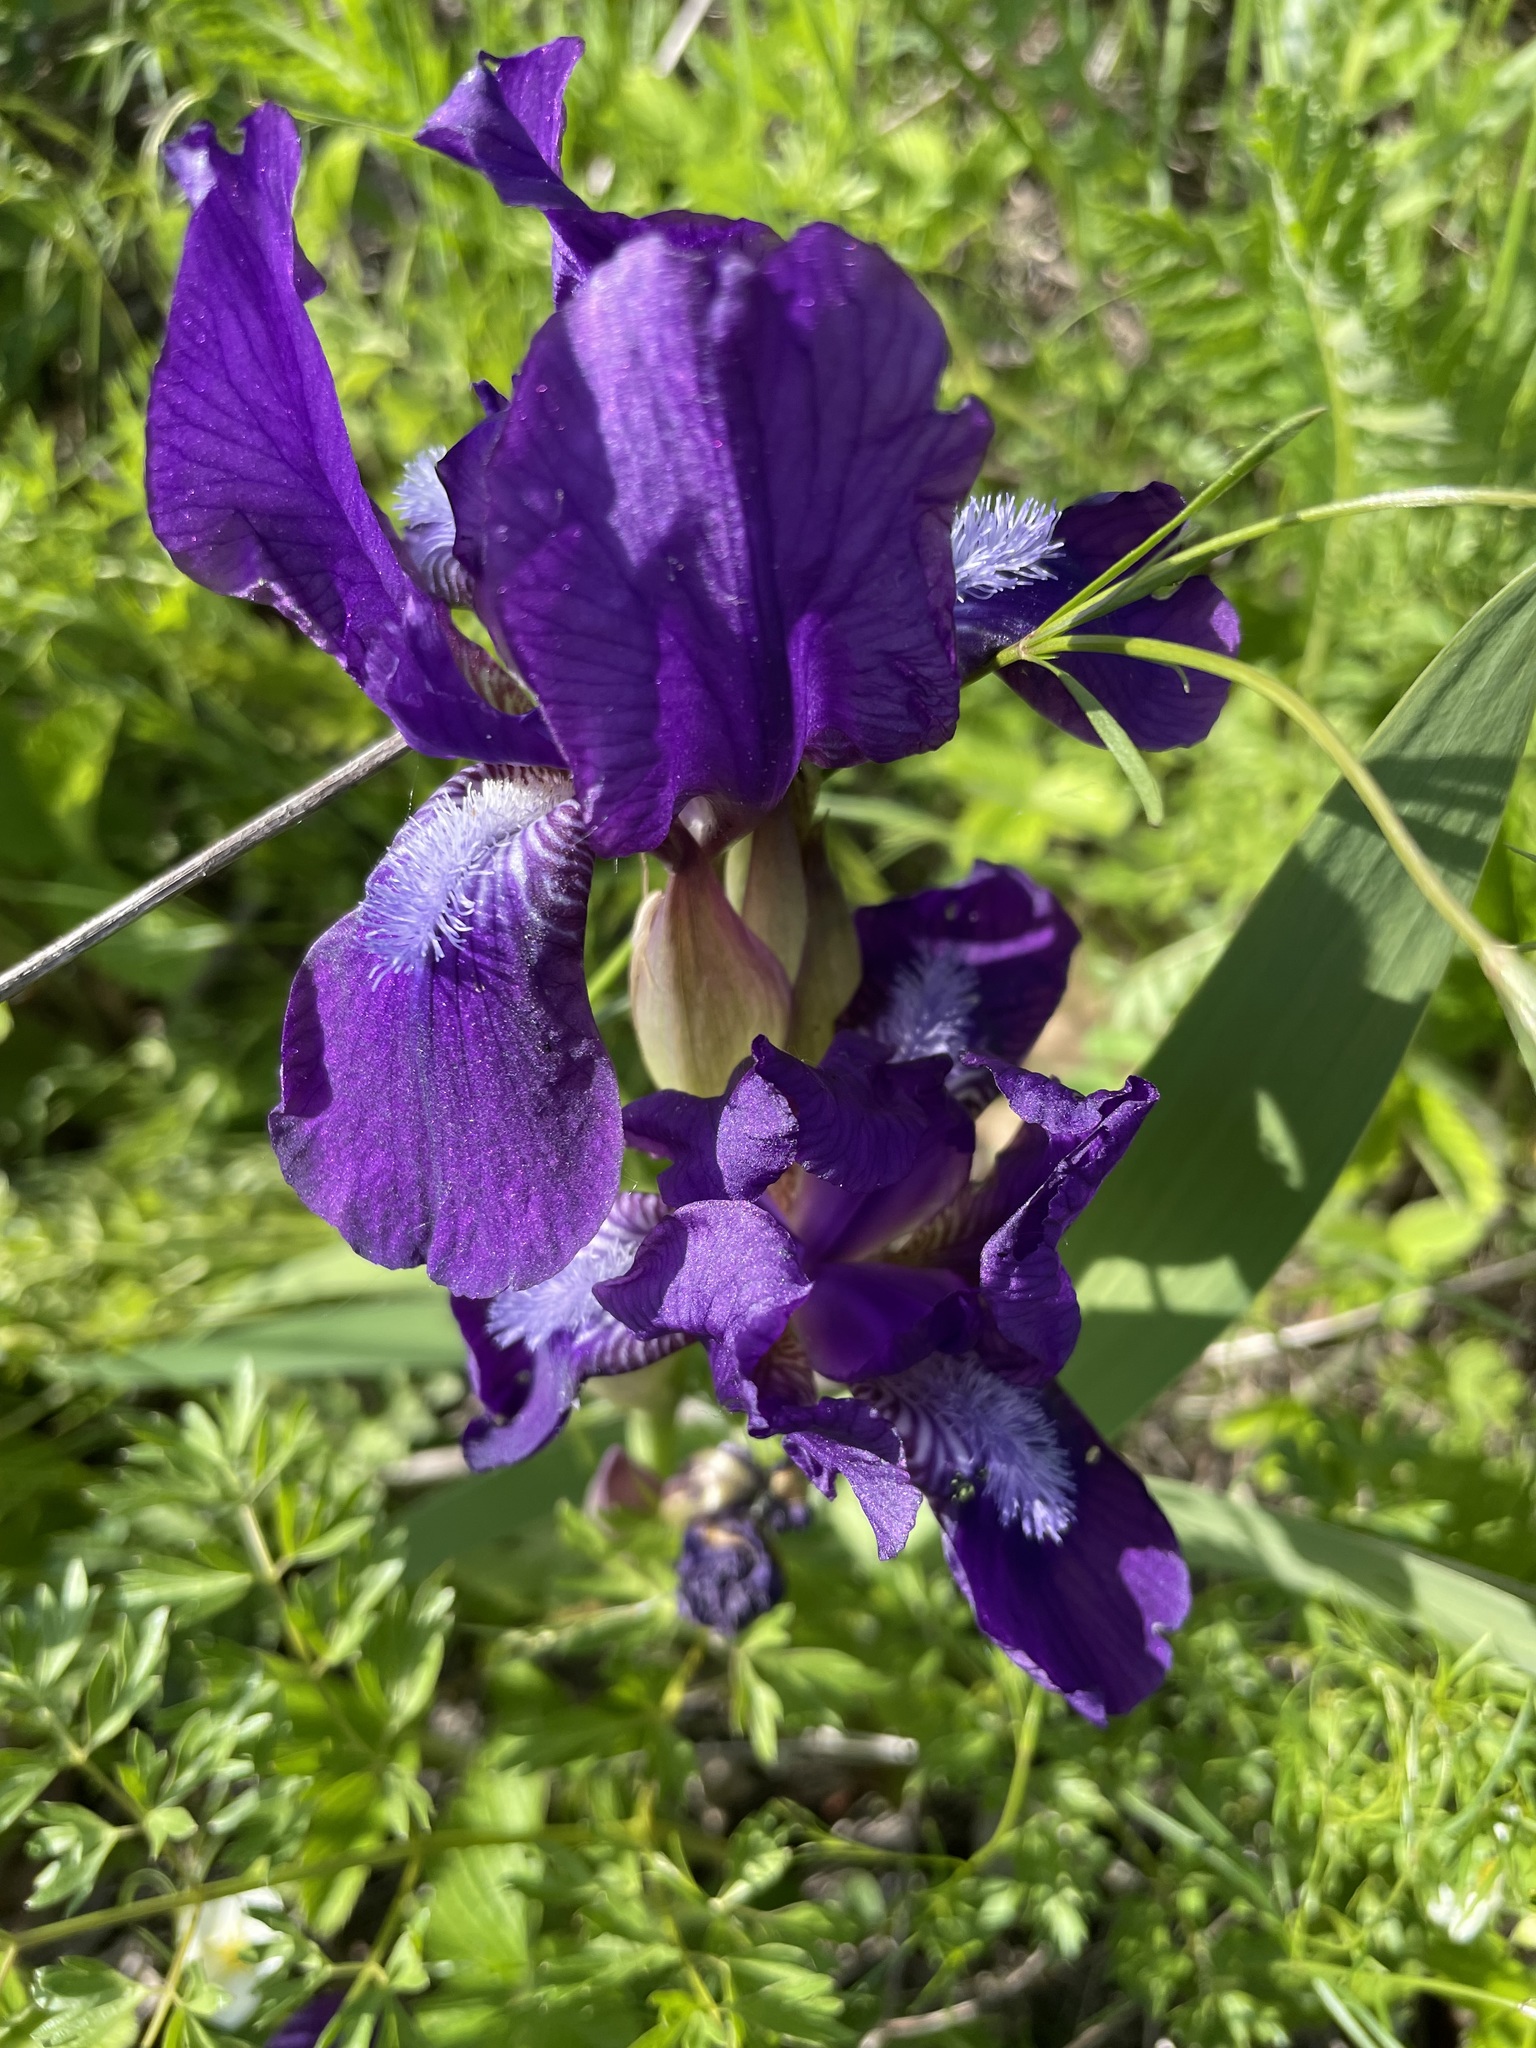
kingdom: Plantae
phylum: Tracheophyta
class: Liliopsida
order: Asparagales
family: Iridaceae
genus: Iris
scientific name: Iris aphylla
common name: Stool iris
